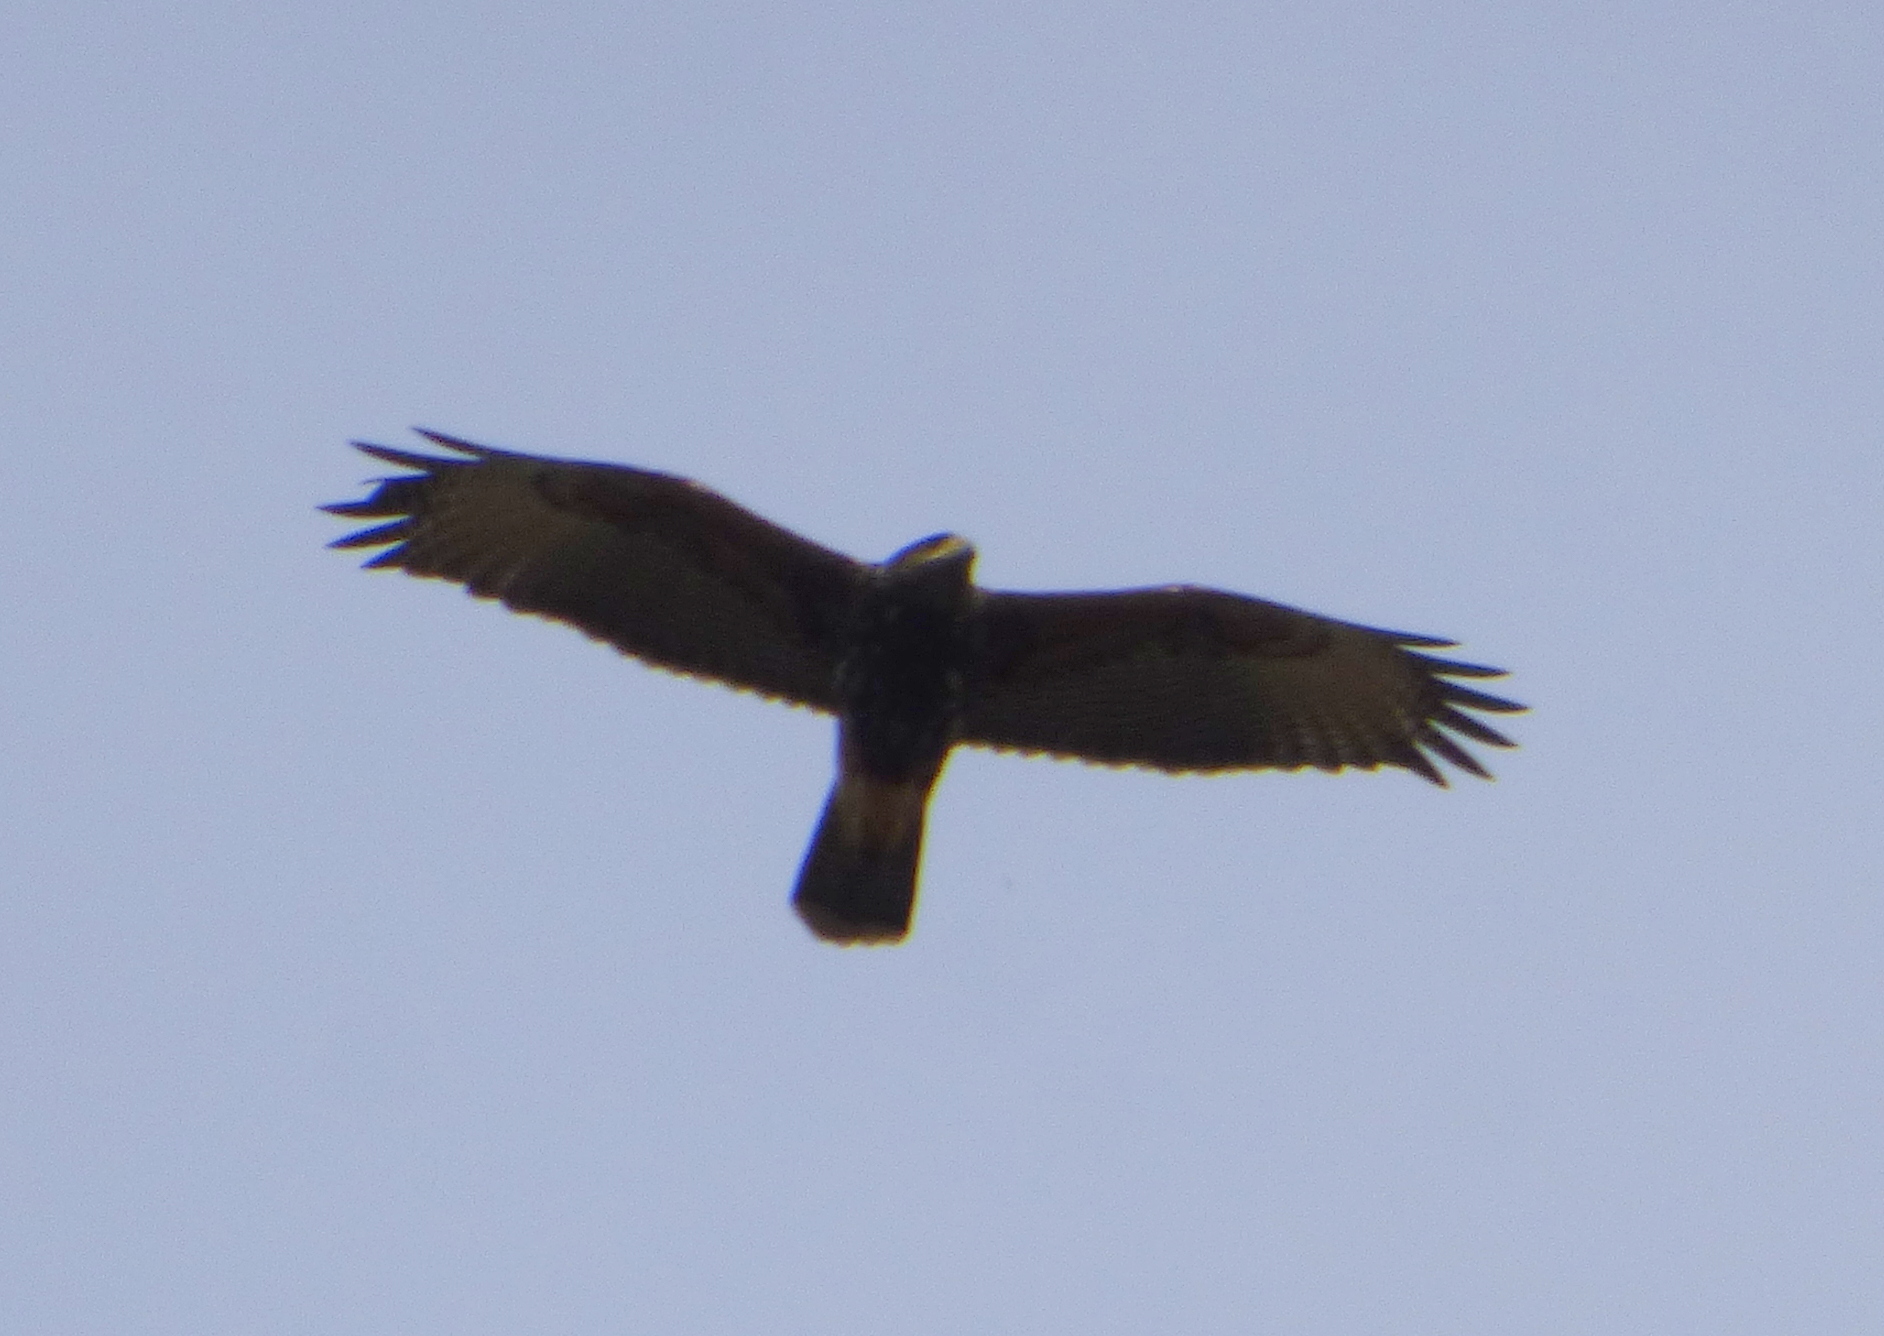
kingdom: Animalia
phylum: Chordata
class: Aves
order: Accipitriformes
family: Accipitridae
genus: Parabuteo
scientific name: Parabuteo unicinctus
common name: Harris's hawk
